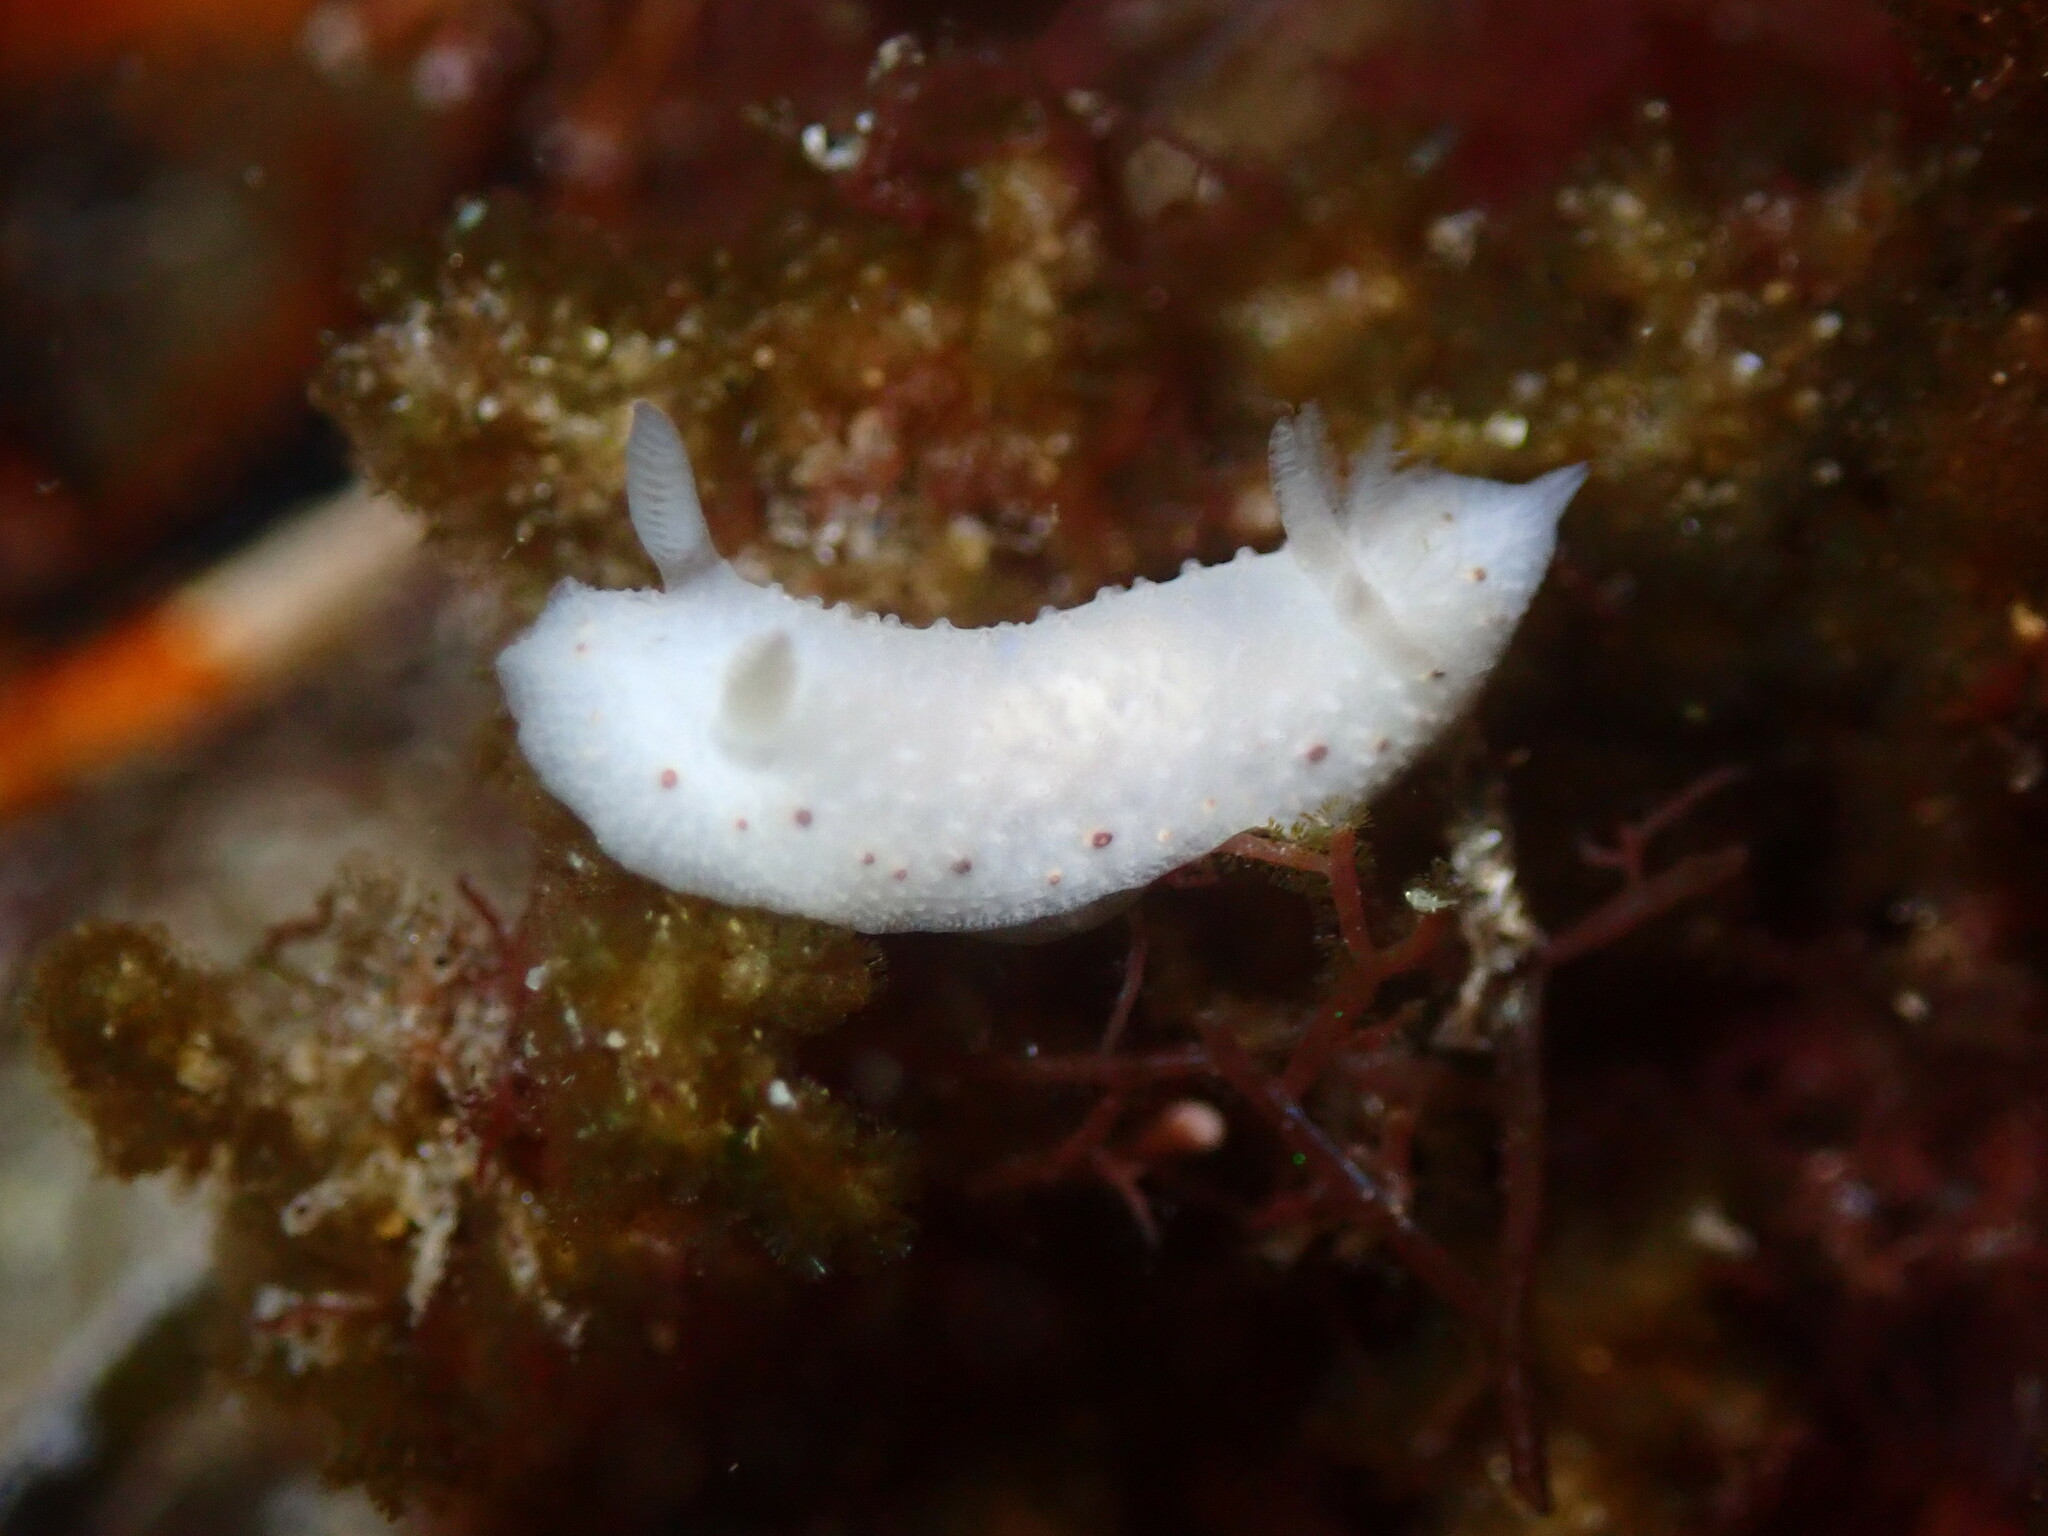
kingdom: Animalia
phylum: Mollusca
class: Gastropoda
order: Nudibranchia
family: Cadlinidae
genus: Cadlina
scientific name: Cadlina sparsa
